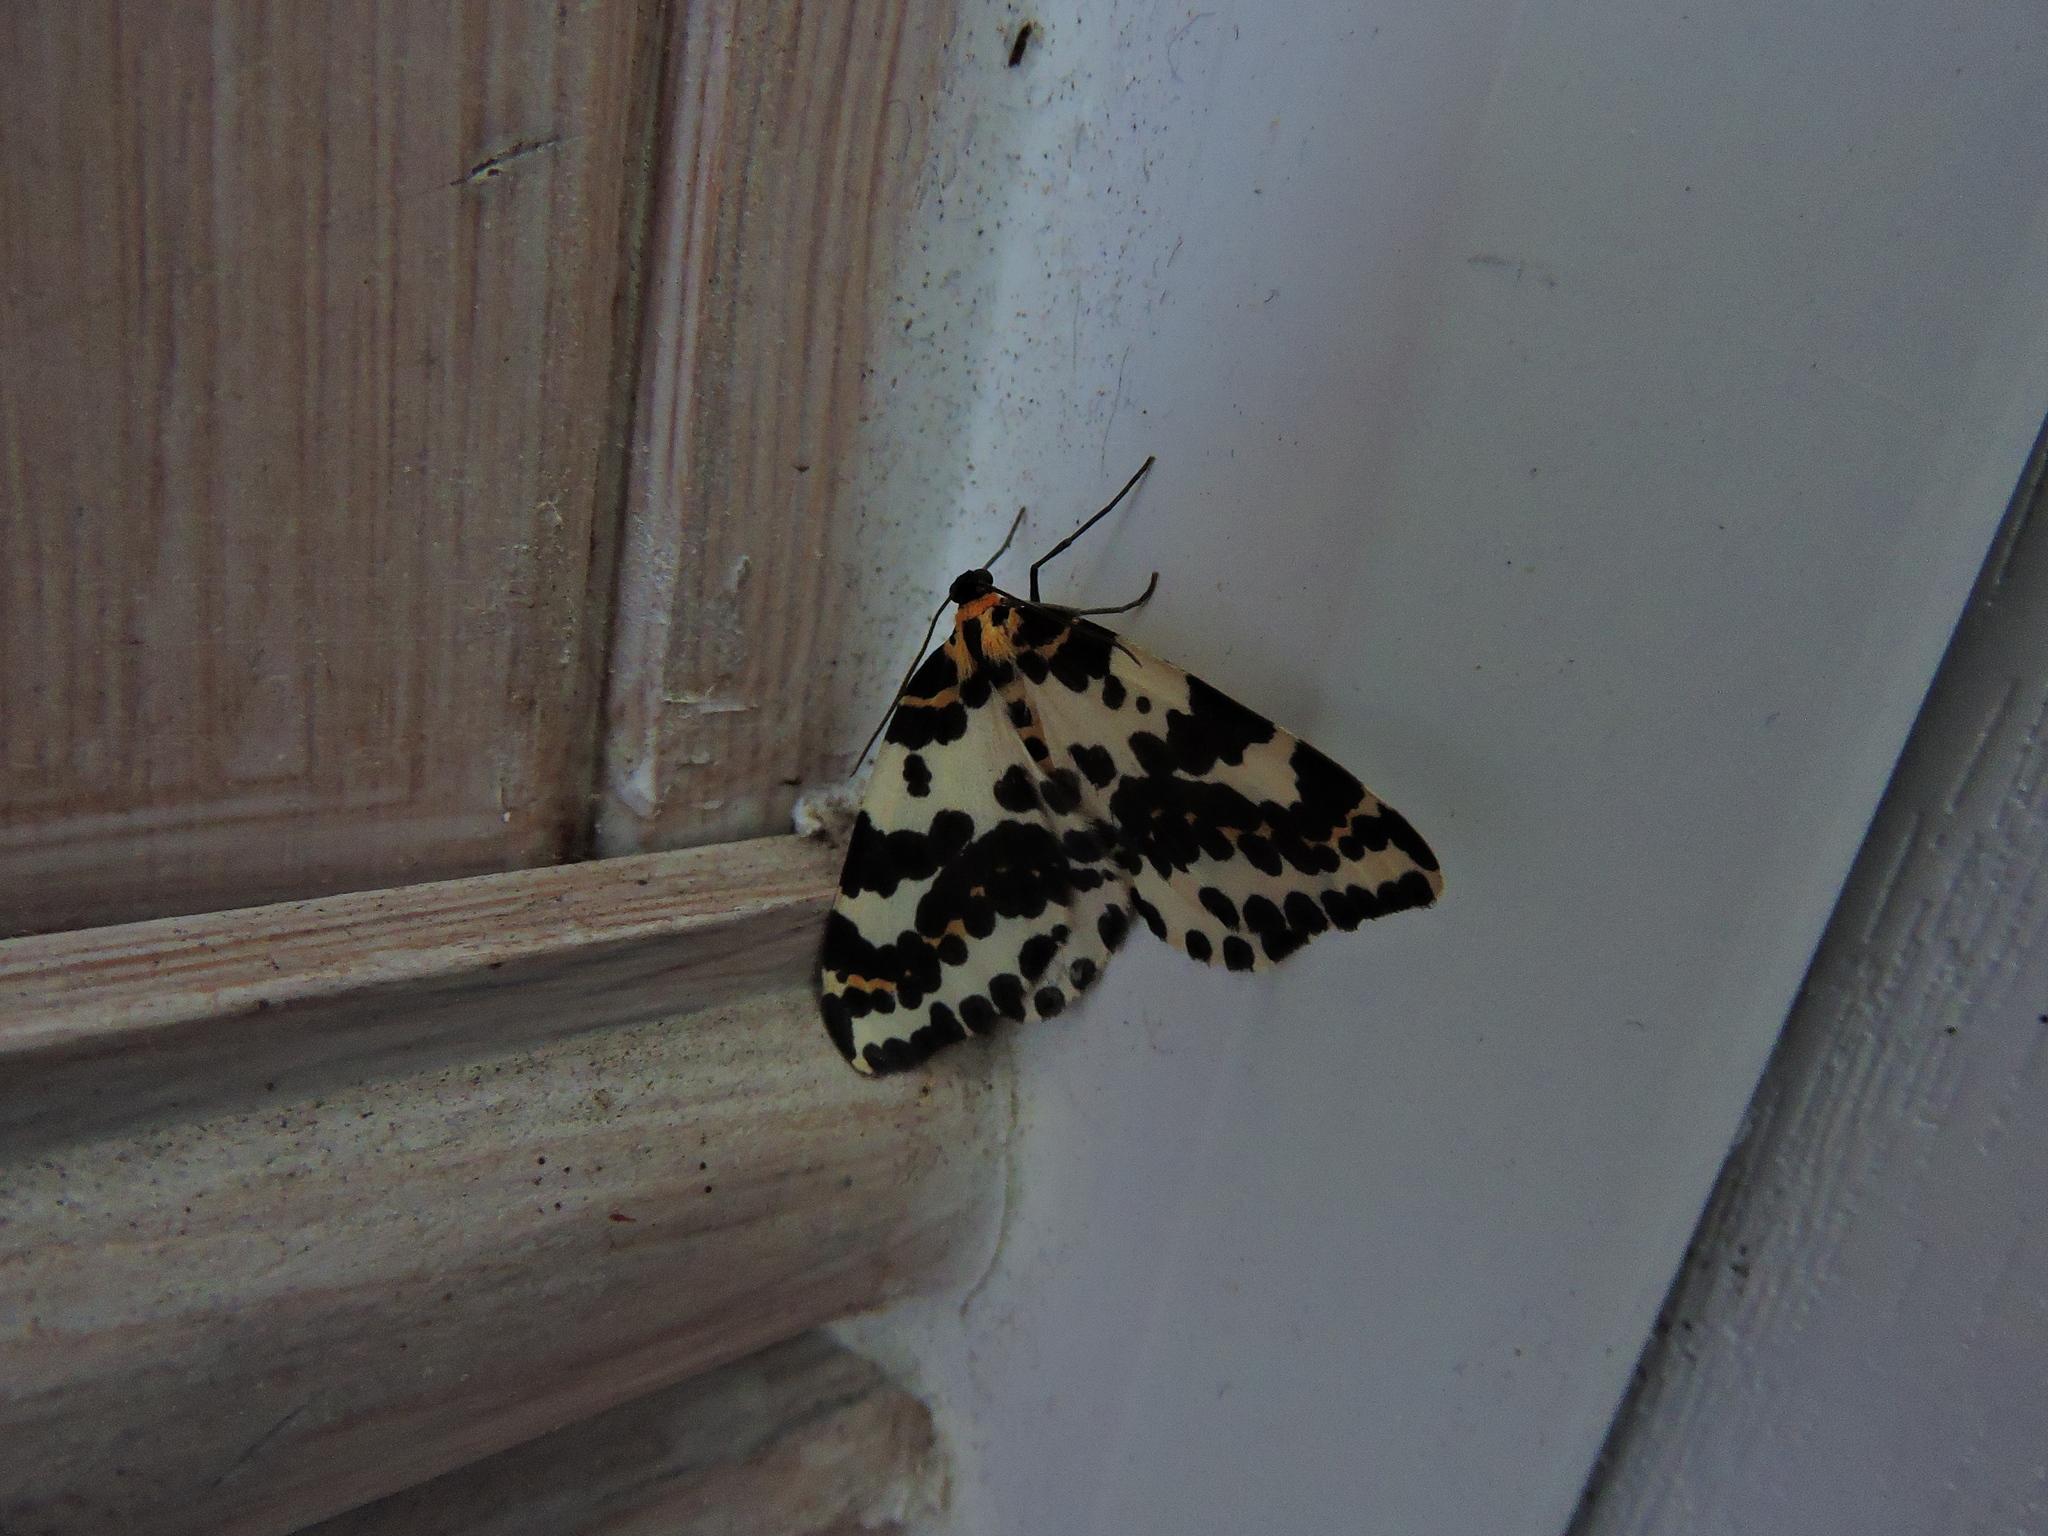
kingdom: Animalia
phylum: Arthropoda
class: Insecta
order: Lepidoptera
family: Geometridae
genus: Abraxas
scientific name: Abraxas grossulariata
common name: Magpie
